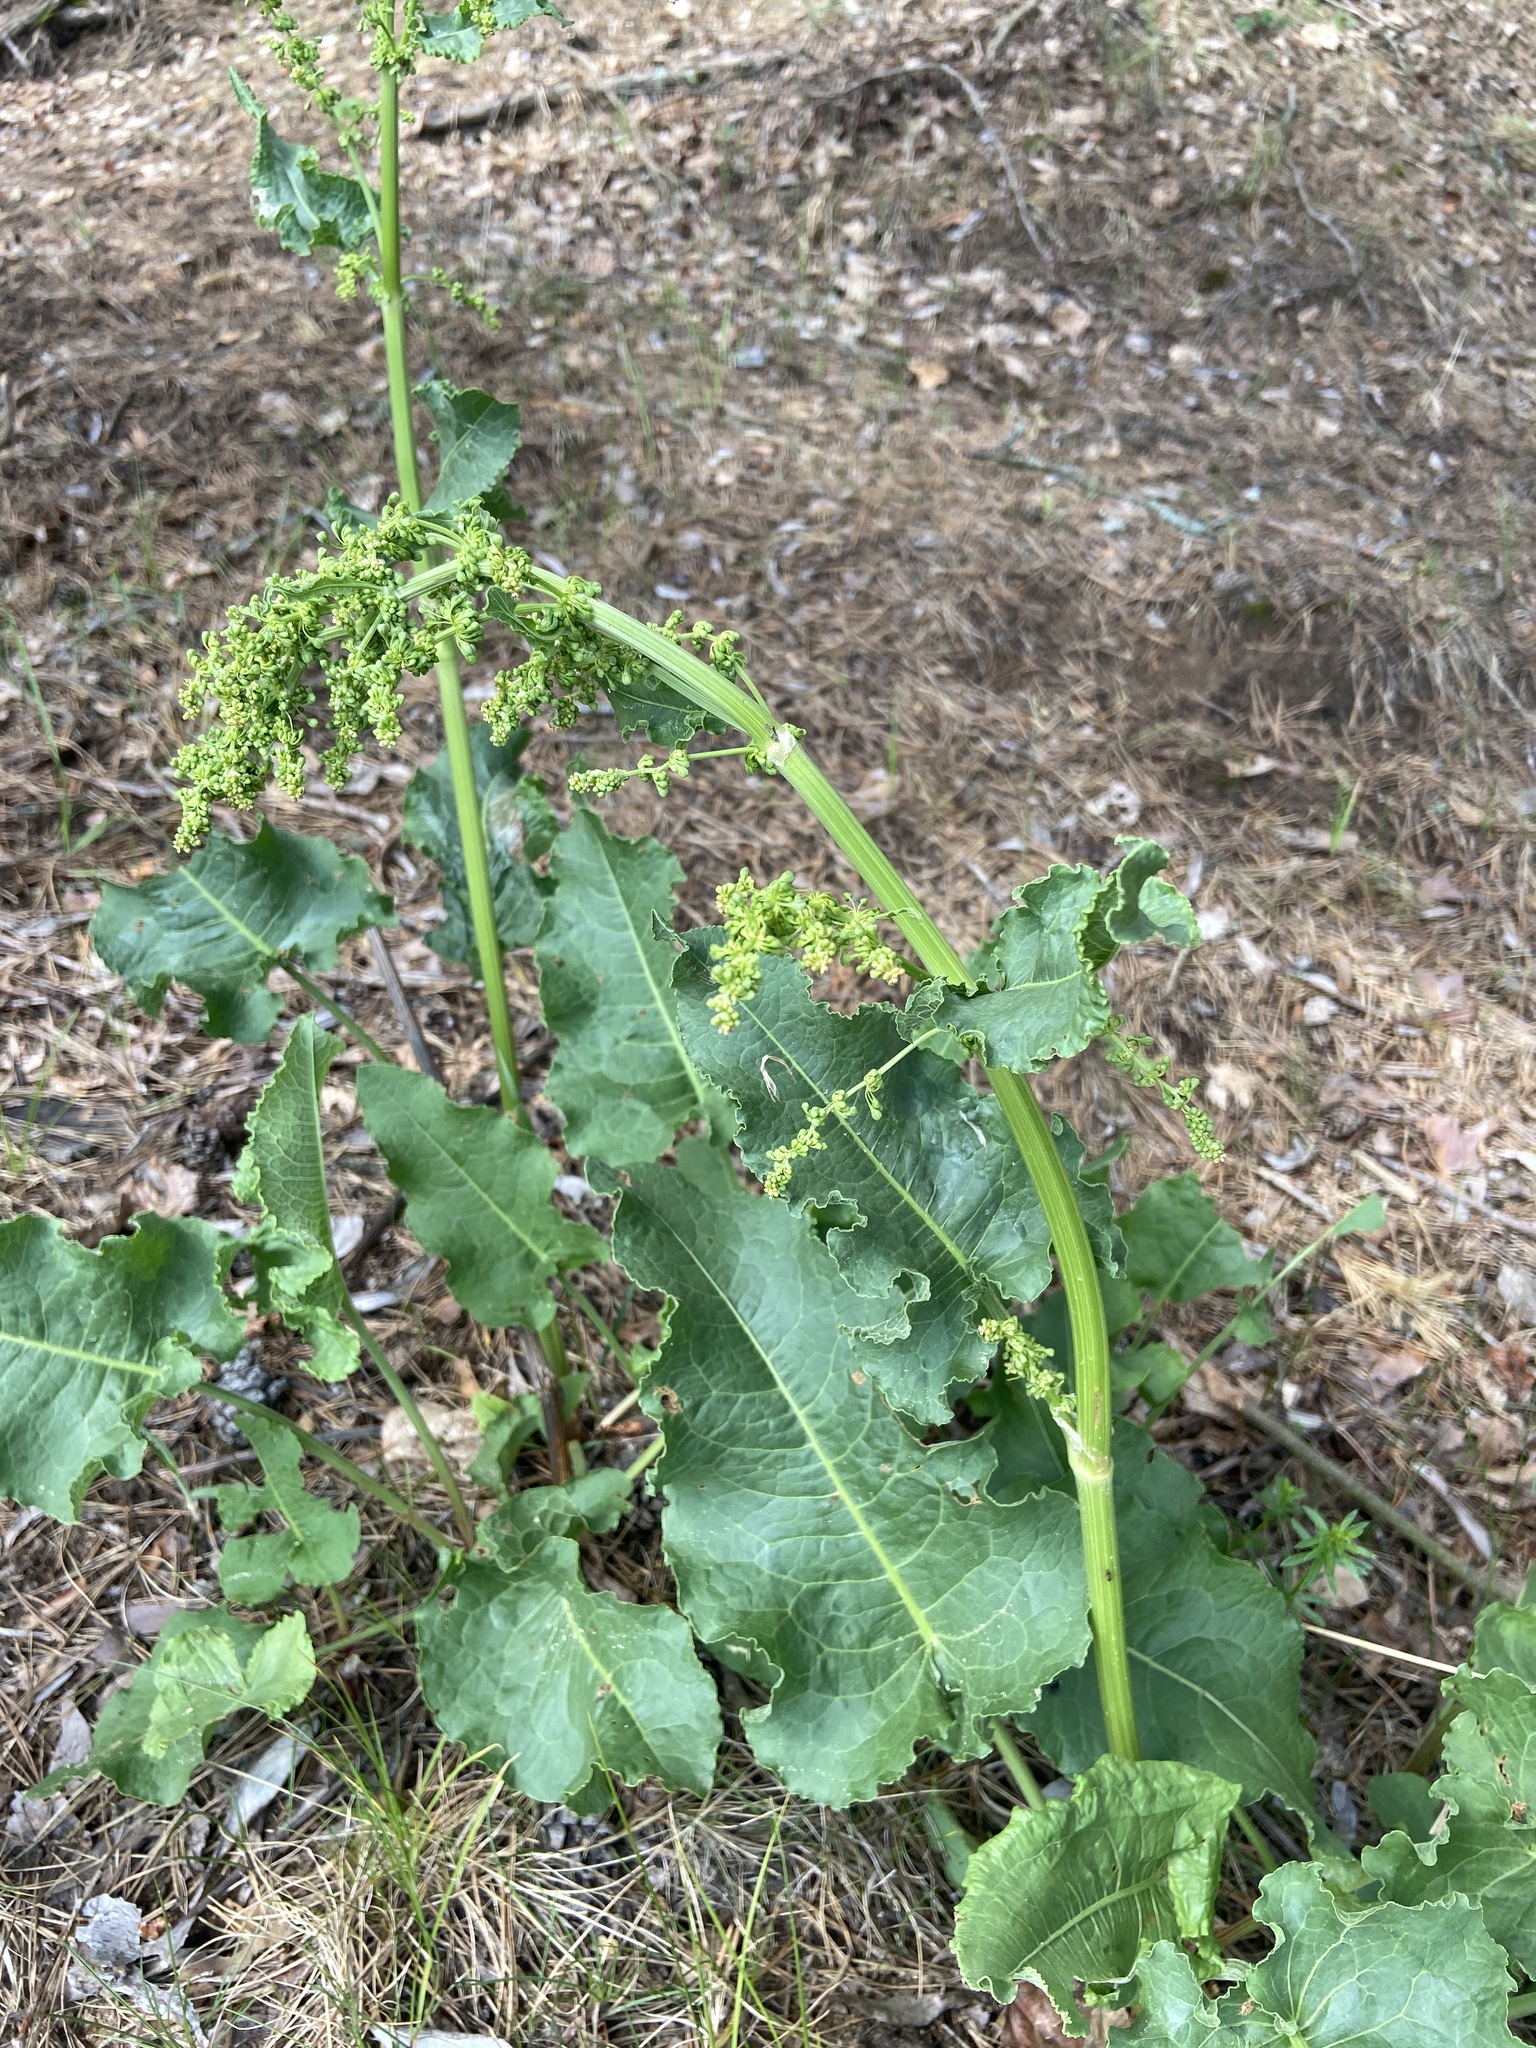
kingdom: Plantae
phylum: Tracheophyta
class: Magnoliopsida
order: Caryophyllales
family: Polygonaceae
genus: Rumex
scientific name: Rumex confertus
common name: Russian dock
